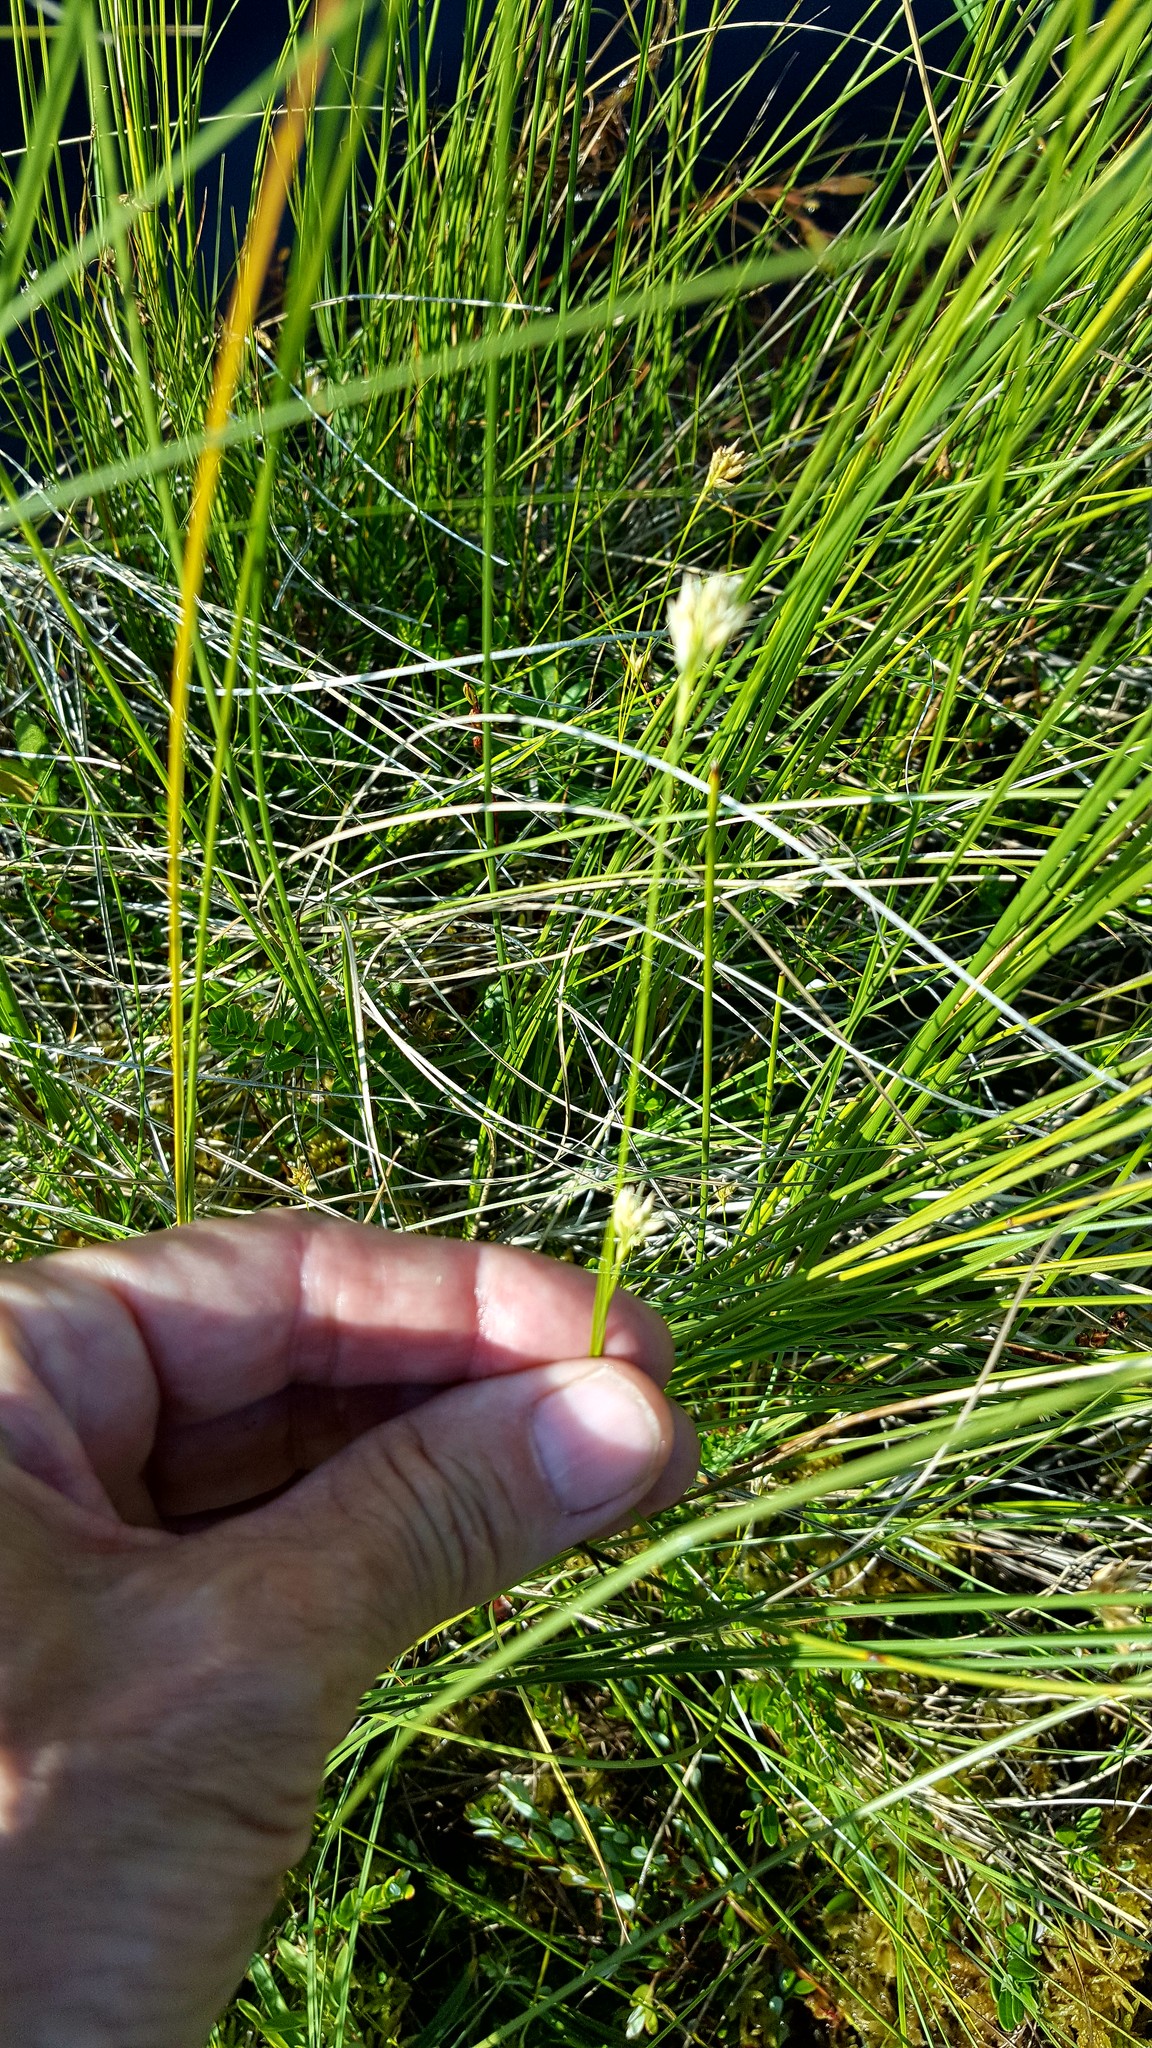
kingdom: Plantae
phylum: Tracheophyta
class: Liliopsida
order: Poales
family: Cyperaceae
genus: Rhynchospora
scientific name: Rhynchospora alba
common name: White beak-sedge
